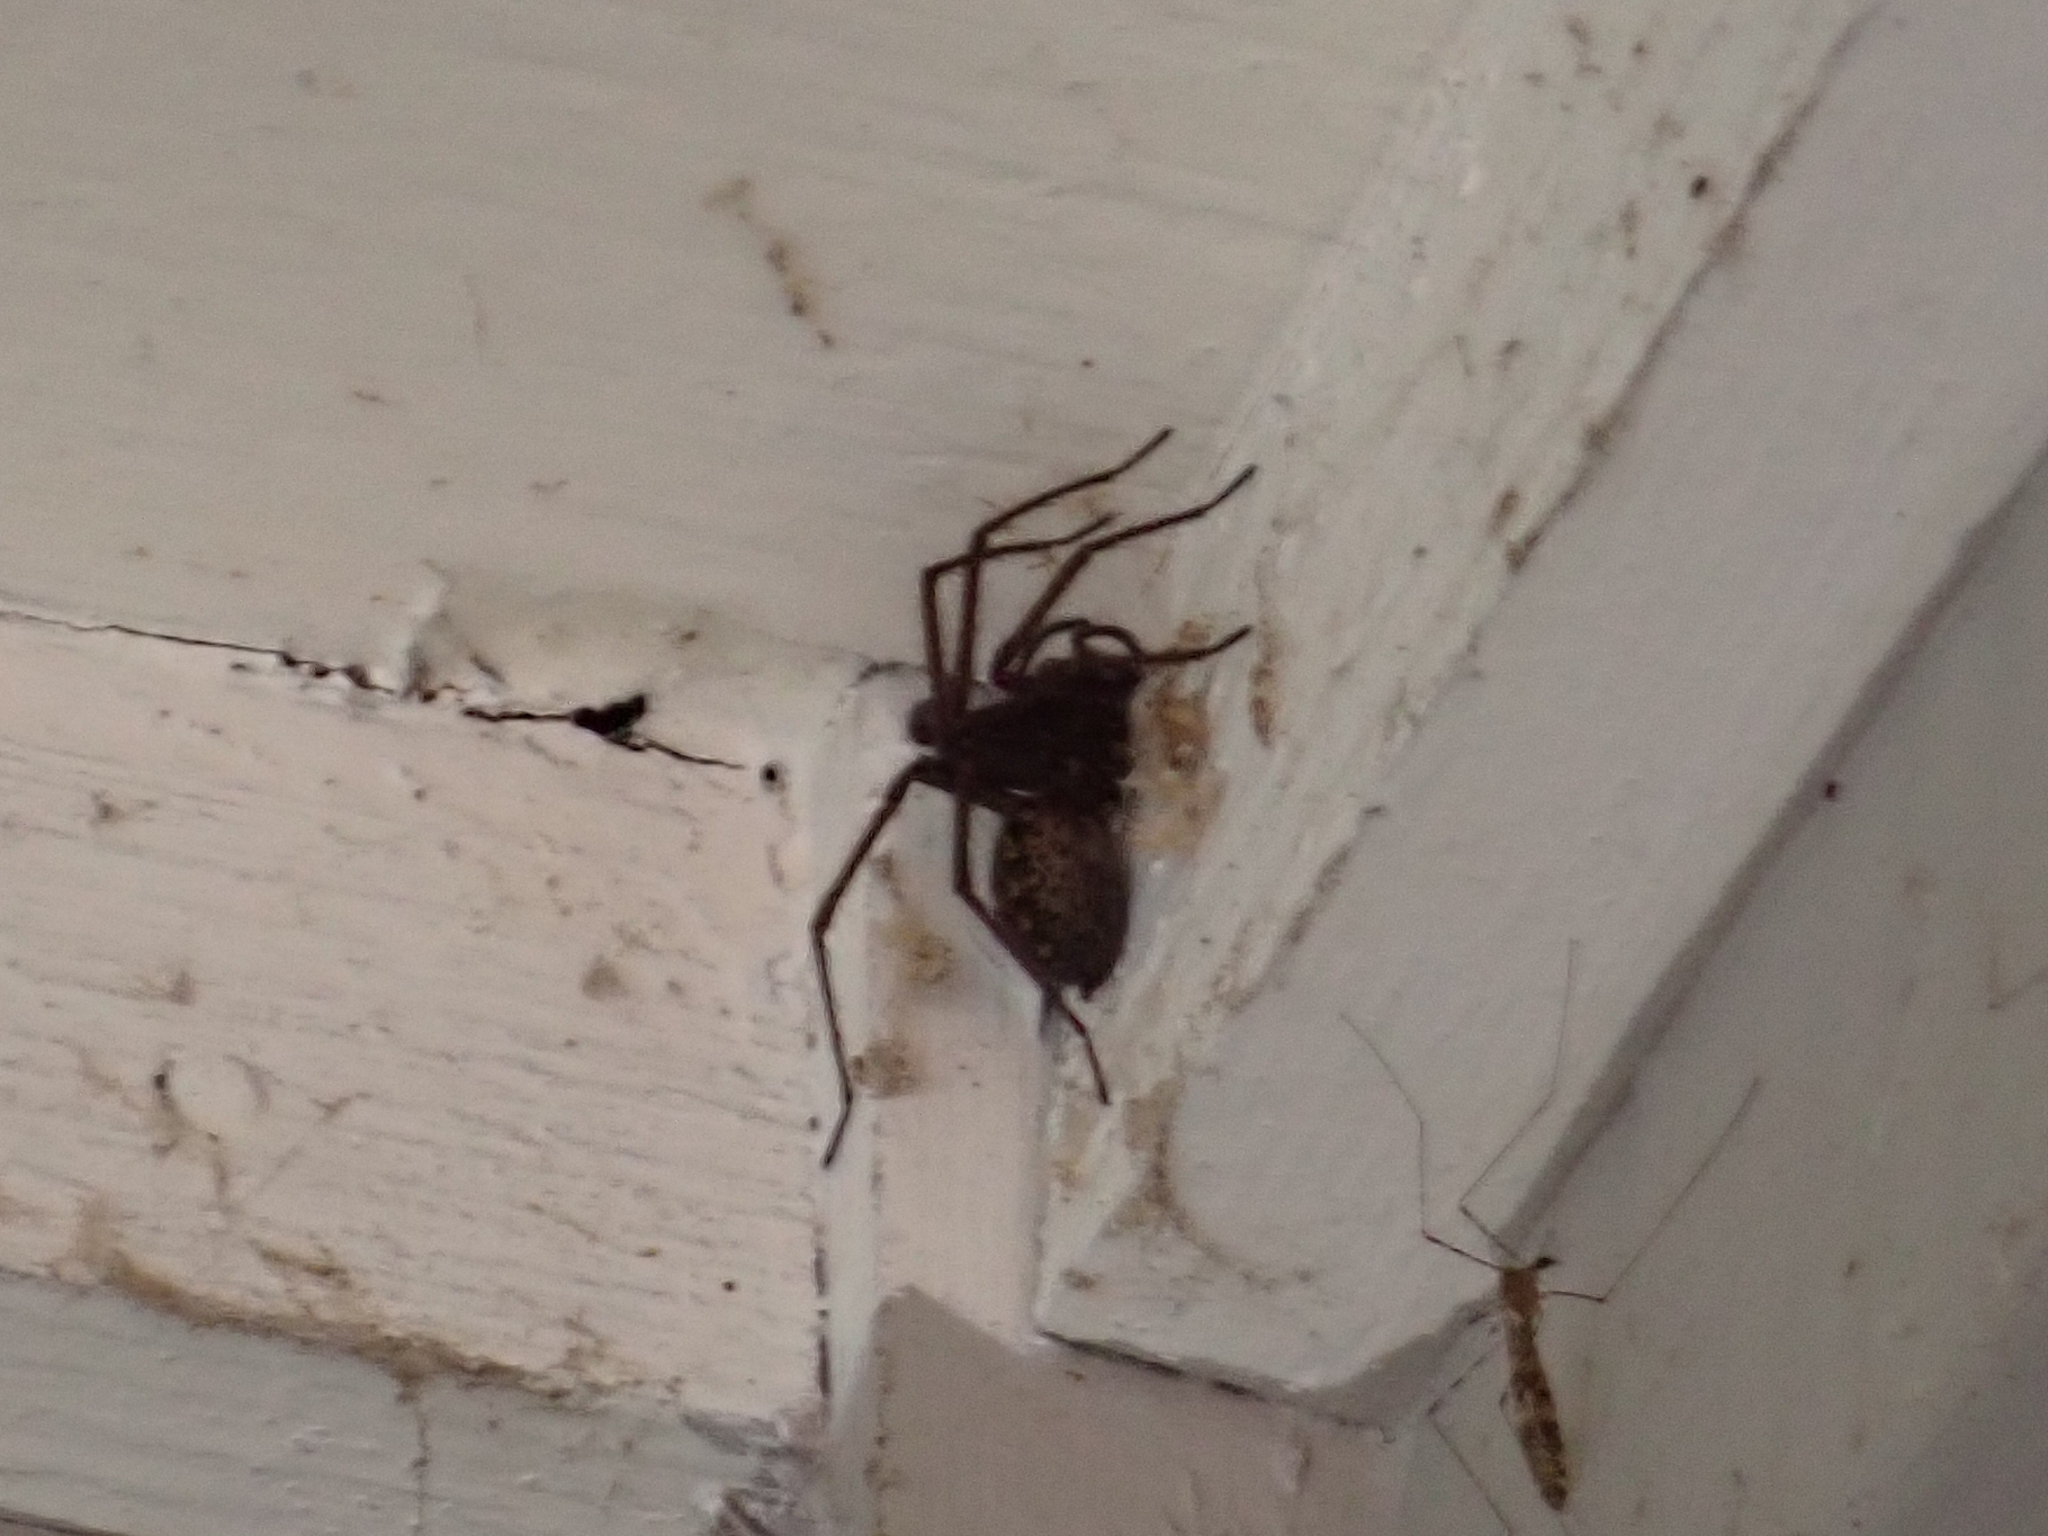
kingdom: Animalia
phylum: Arthropoda
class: Arachnida
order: Araneae
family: Agelenidae
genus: Eratigena
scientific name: Eratigena duellica
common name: Giant house spider
